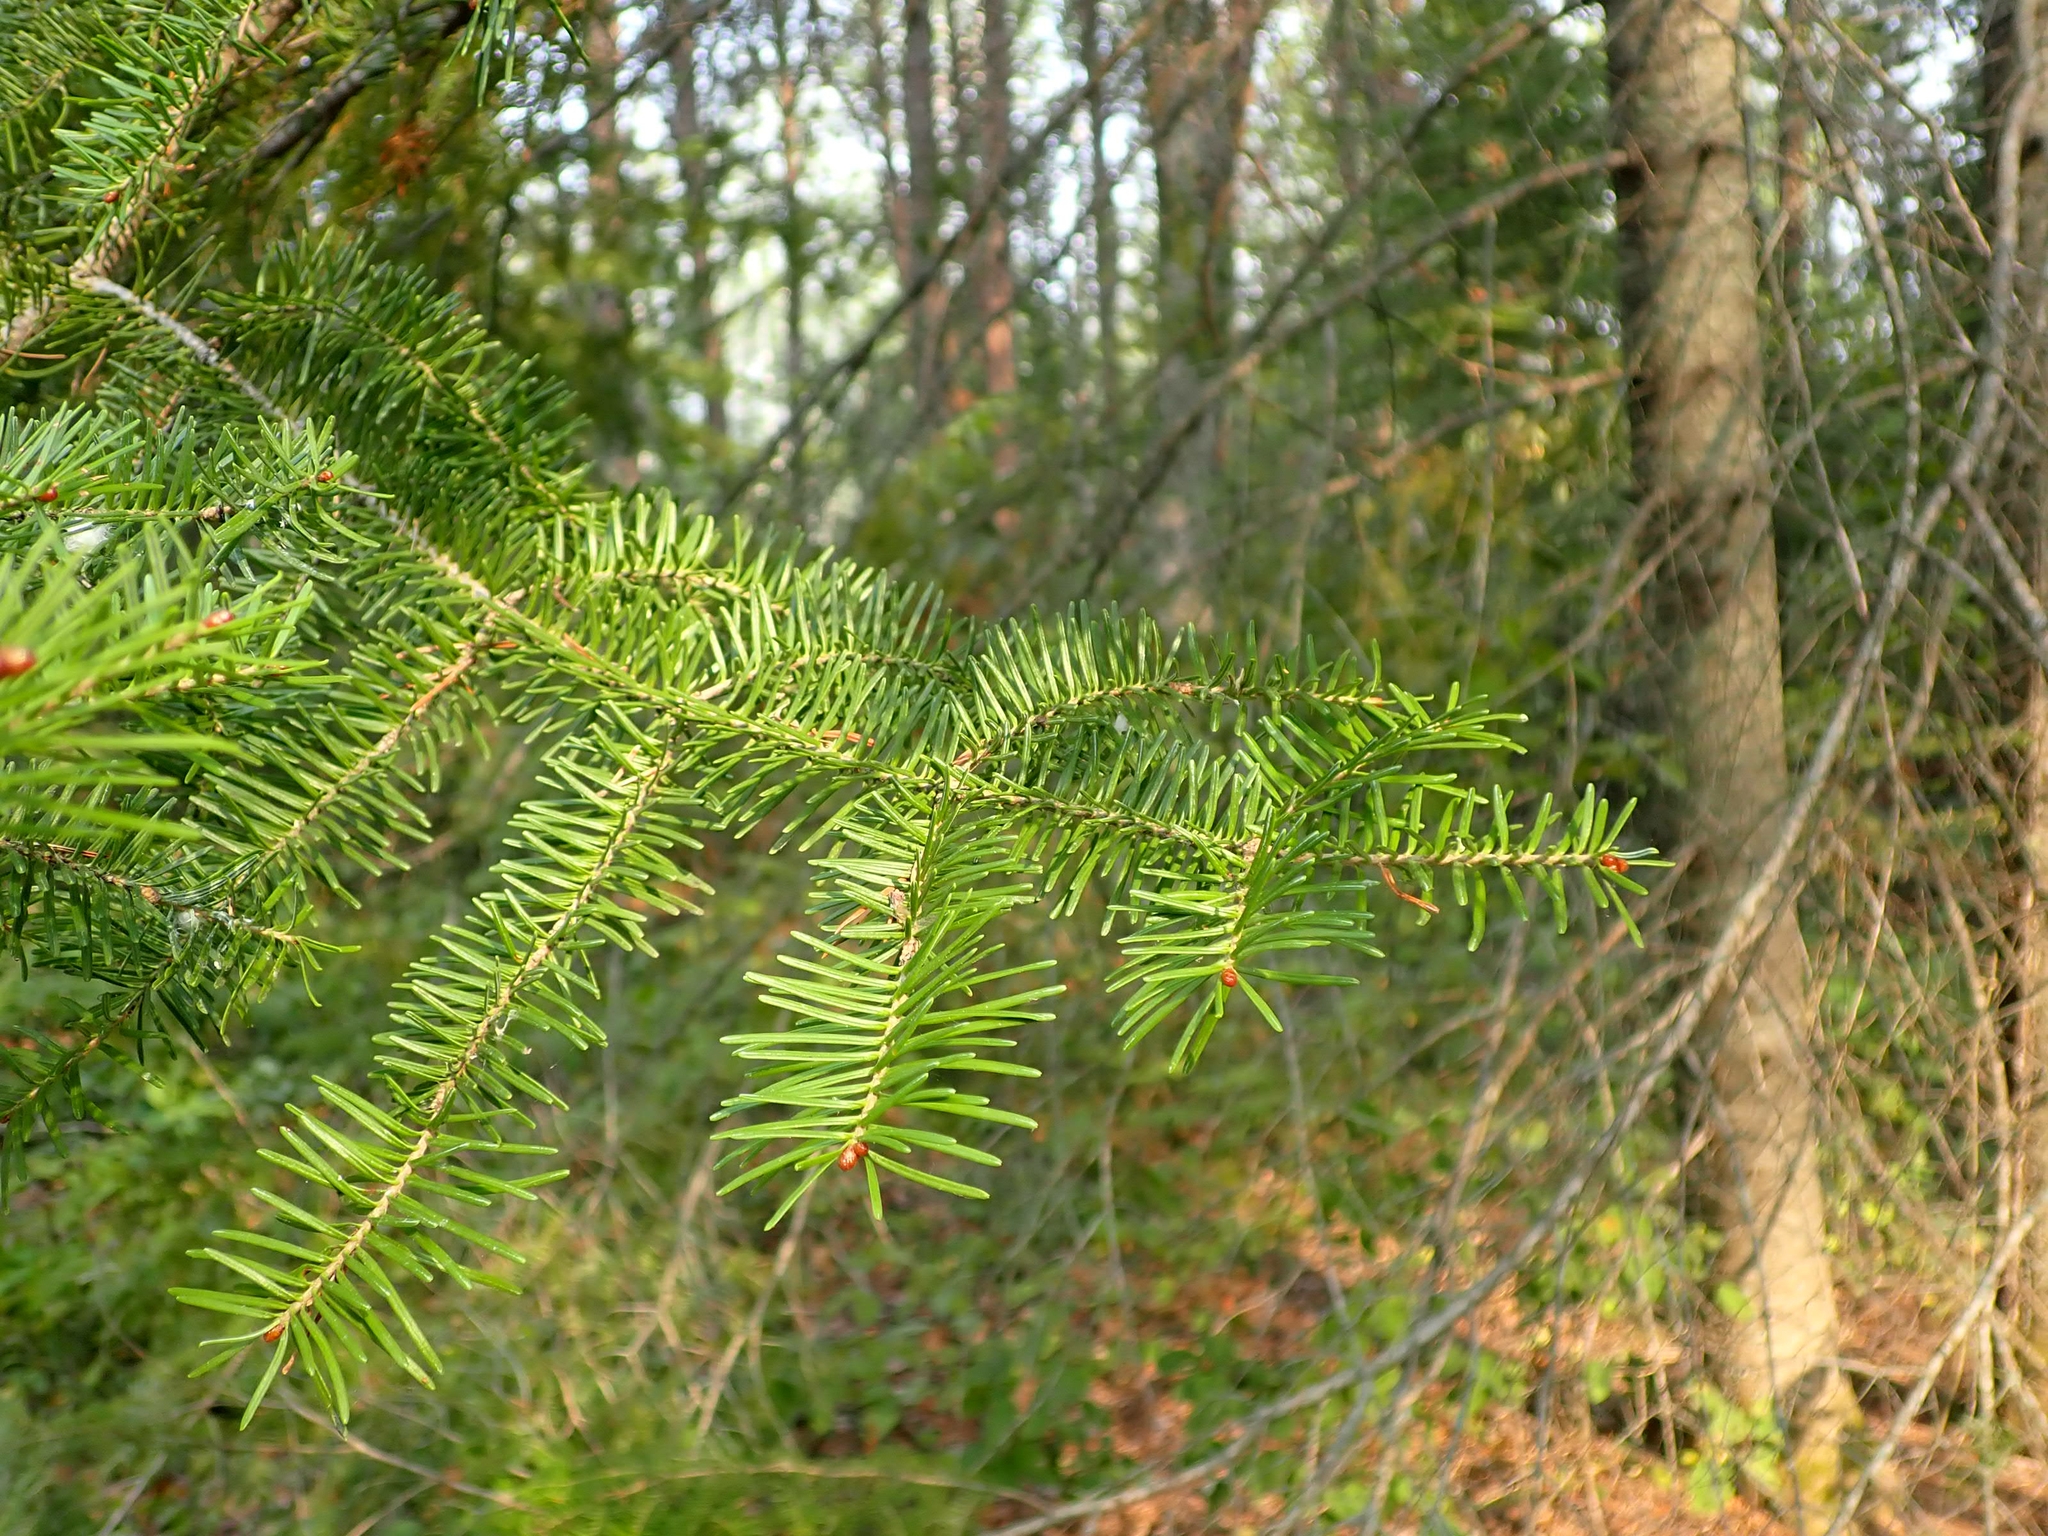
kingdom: Plantae
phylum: Tracheophyta
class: Pinopsida
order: Pinales
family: Pinaceae
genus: Abies
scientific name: Abies balsamea
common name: Balsam fir
